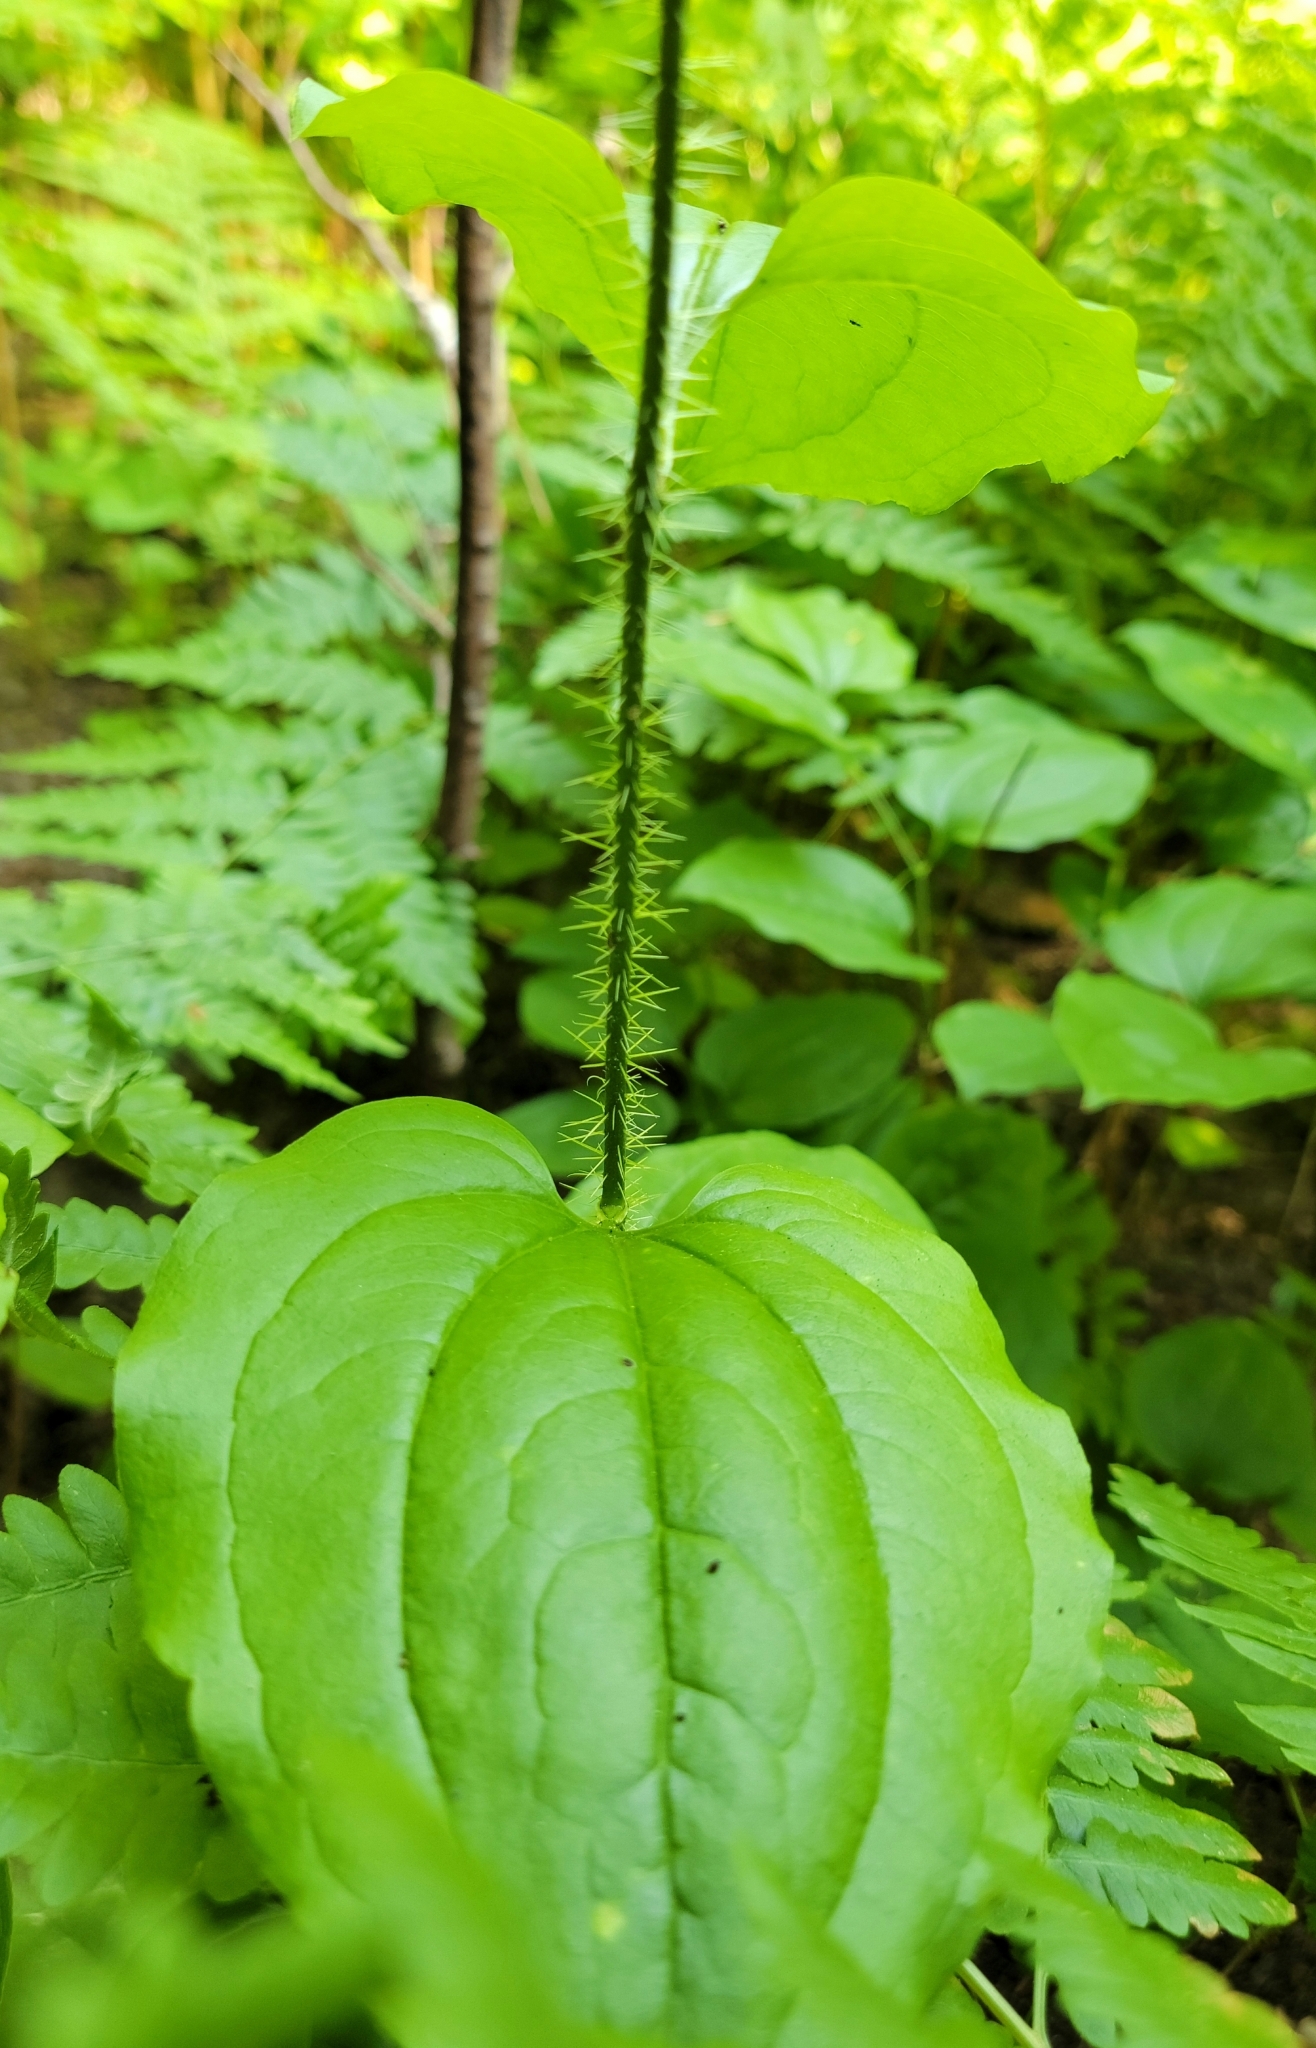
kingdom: Plantae
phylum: Tracheophyta
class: Liliopsida
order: Liliales
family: Smilacaceae
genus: Smilax
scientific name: Smilax tamnoides
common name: Hellfetter
